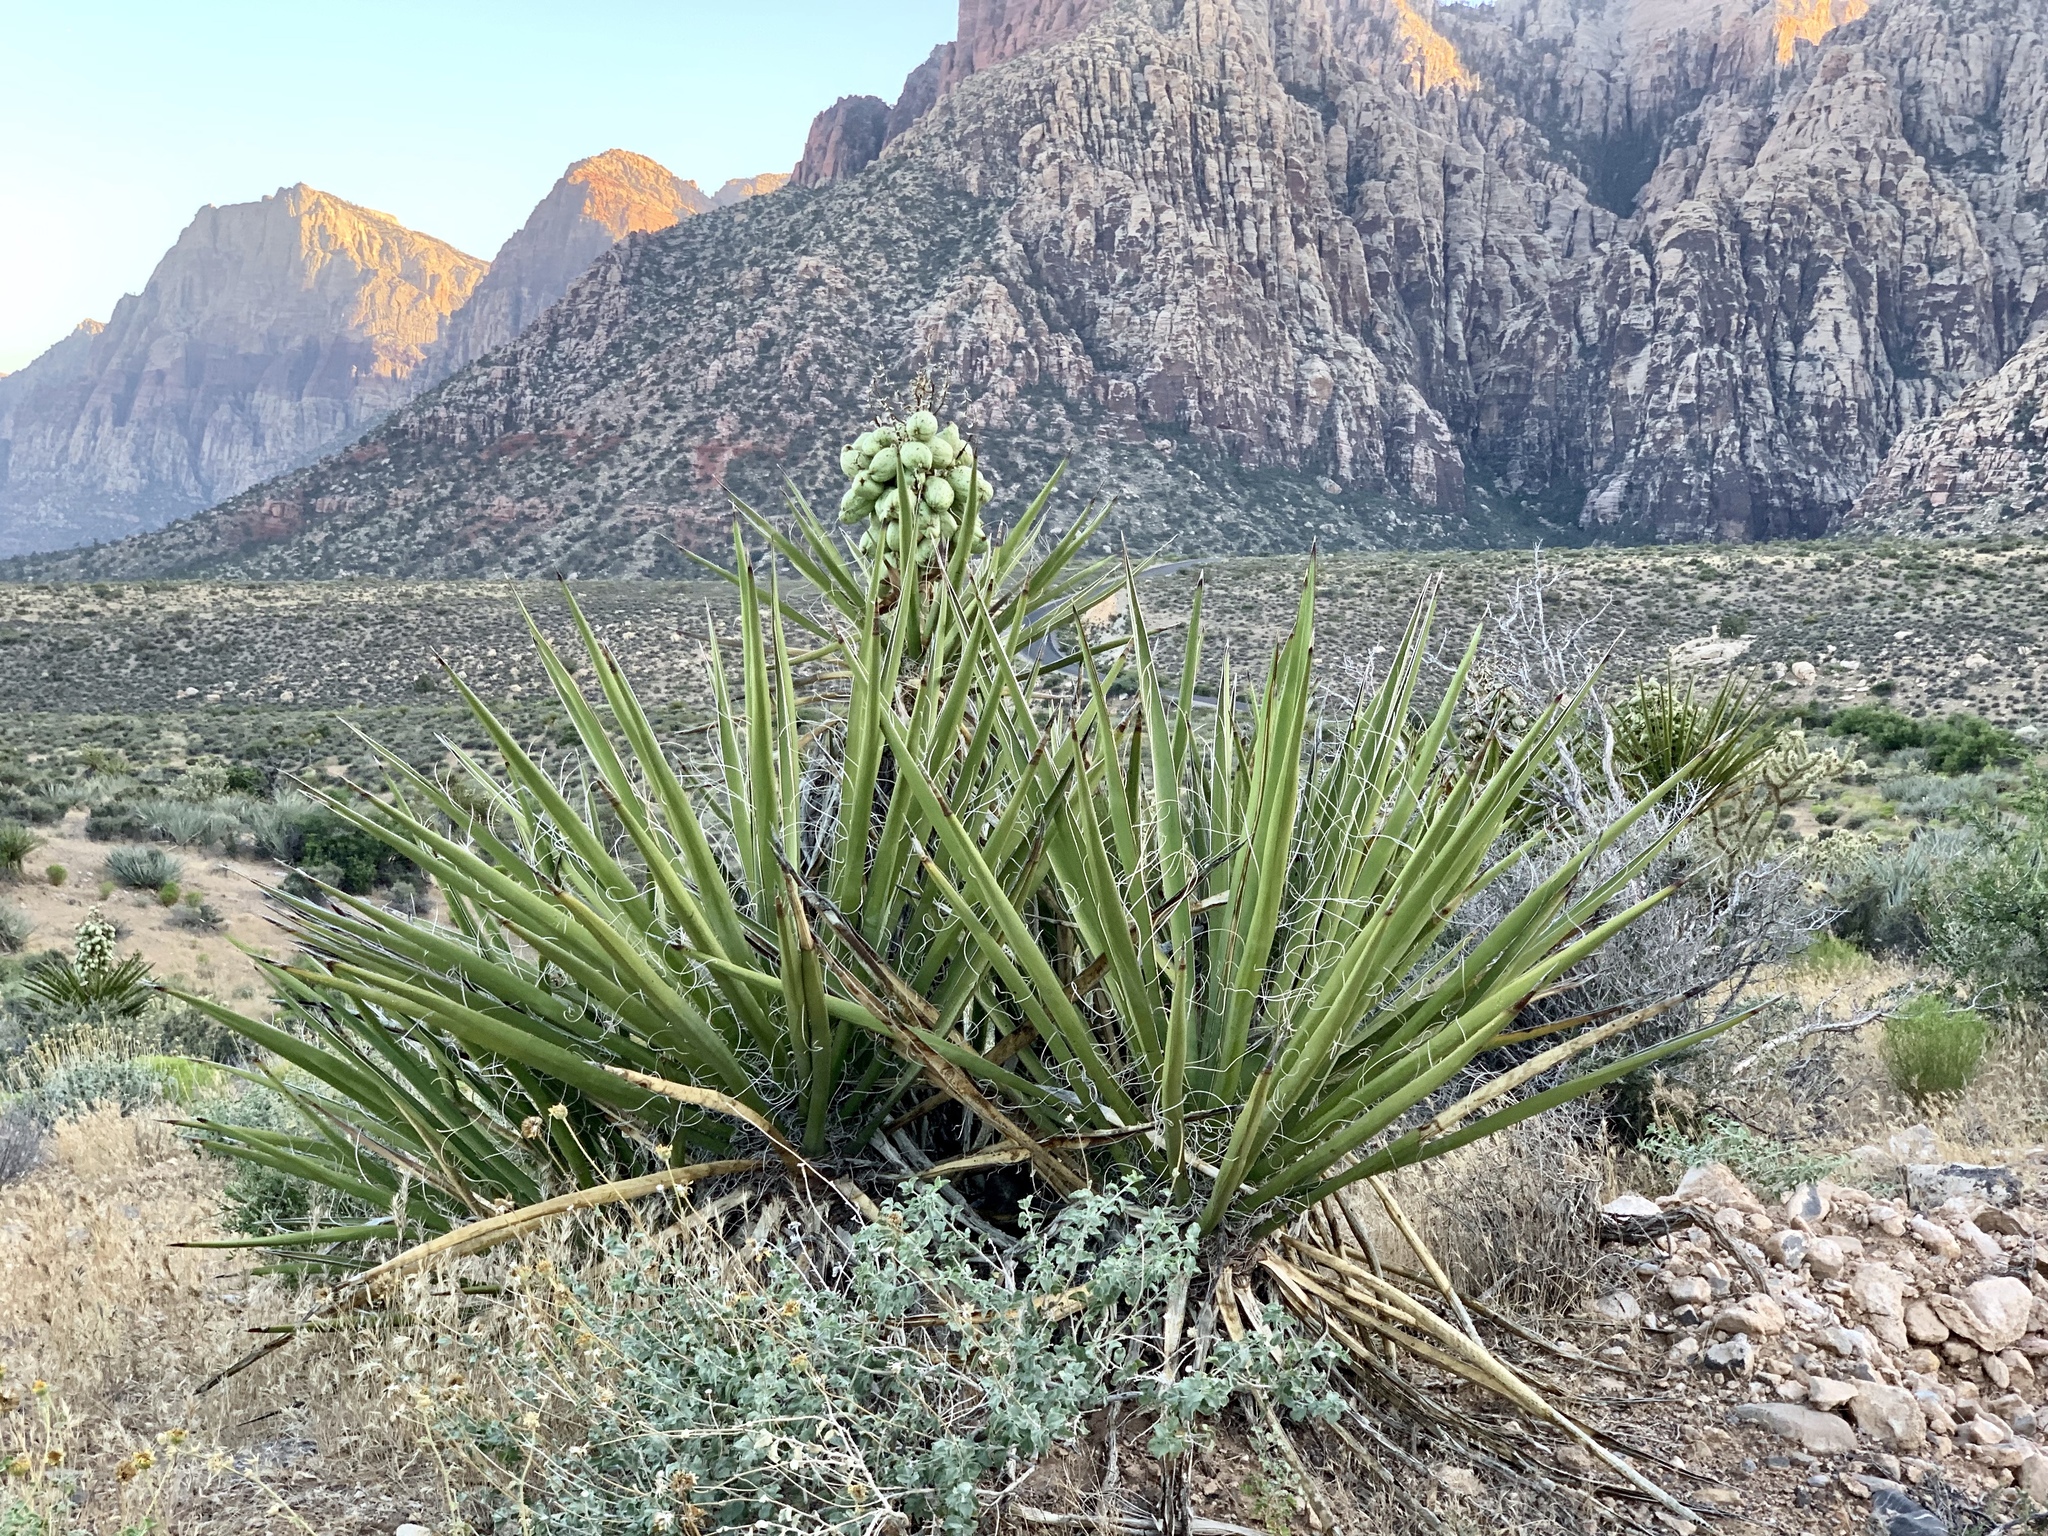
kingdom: Plantae
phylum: Tracheophyta
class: Liliopsida
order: Asparagales
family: Asparagaceae
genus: Yucca
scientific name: Yucca schidigera
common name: Mojave yucca
